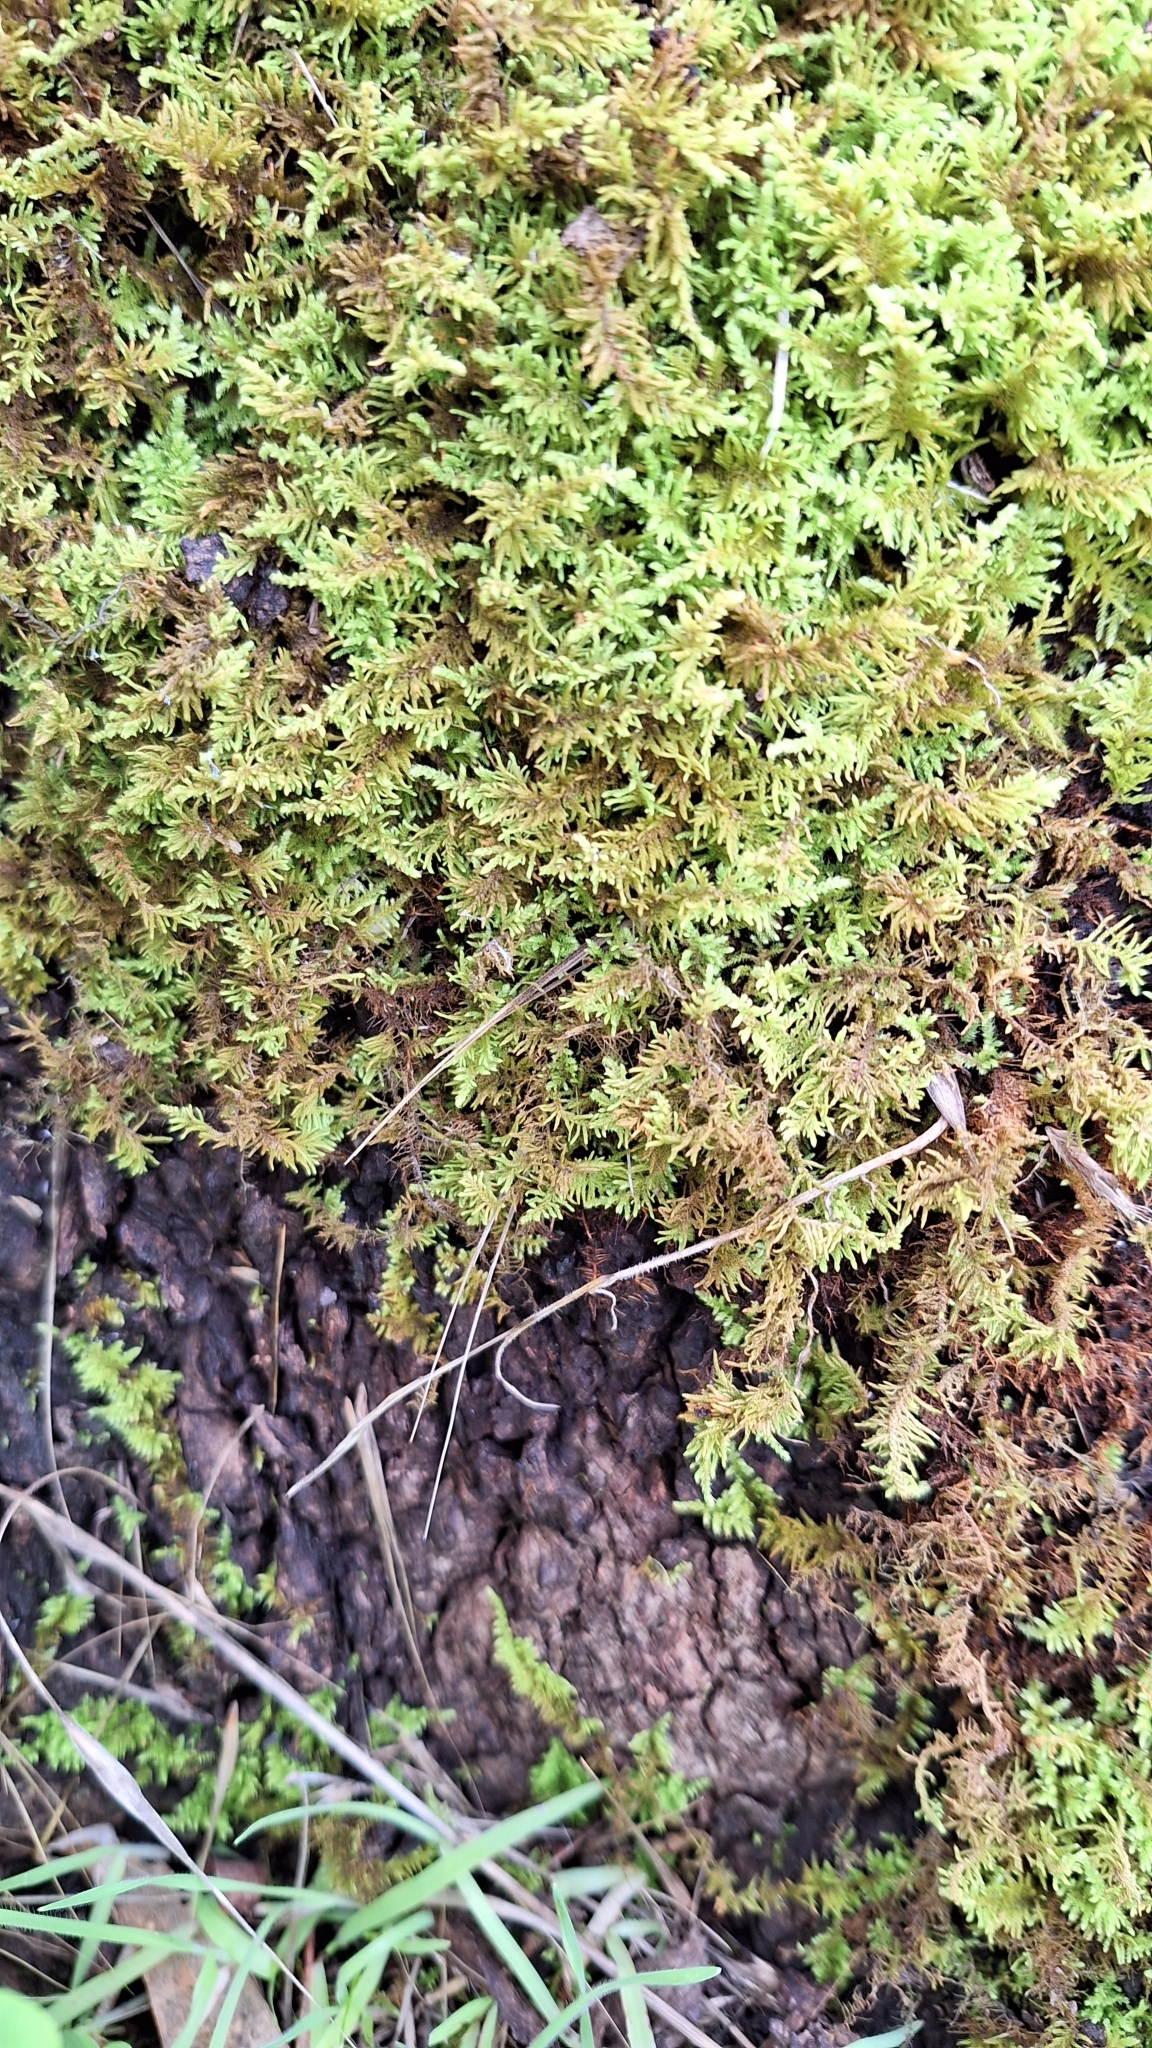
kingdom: Plantae
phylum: Bryophyta
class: Bryopsida
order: Hypnales
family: Thuidiaceae
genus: Thuidiopsis
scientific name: Thuidiopsis sparsa
